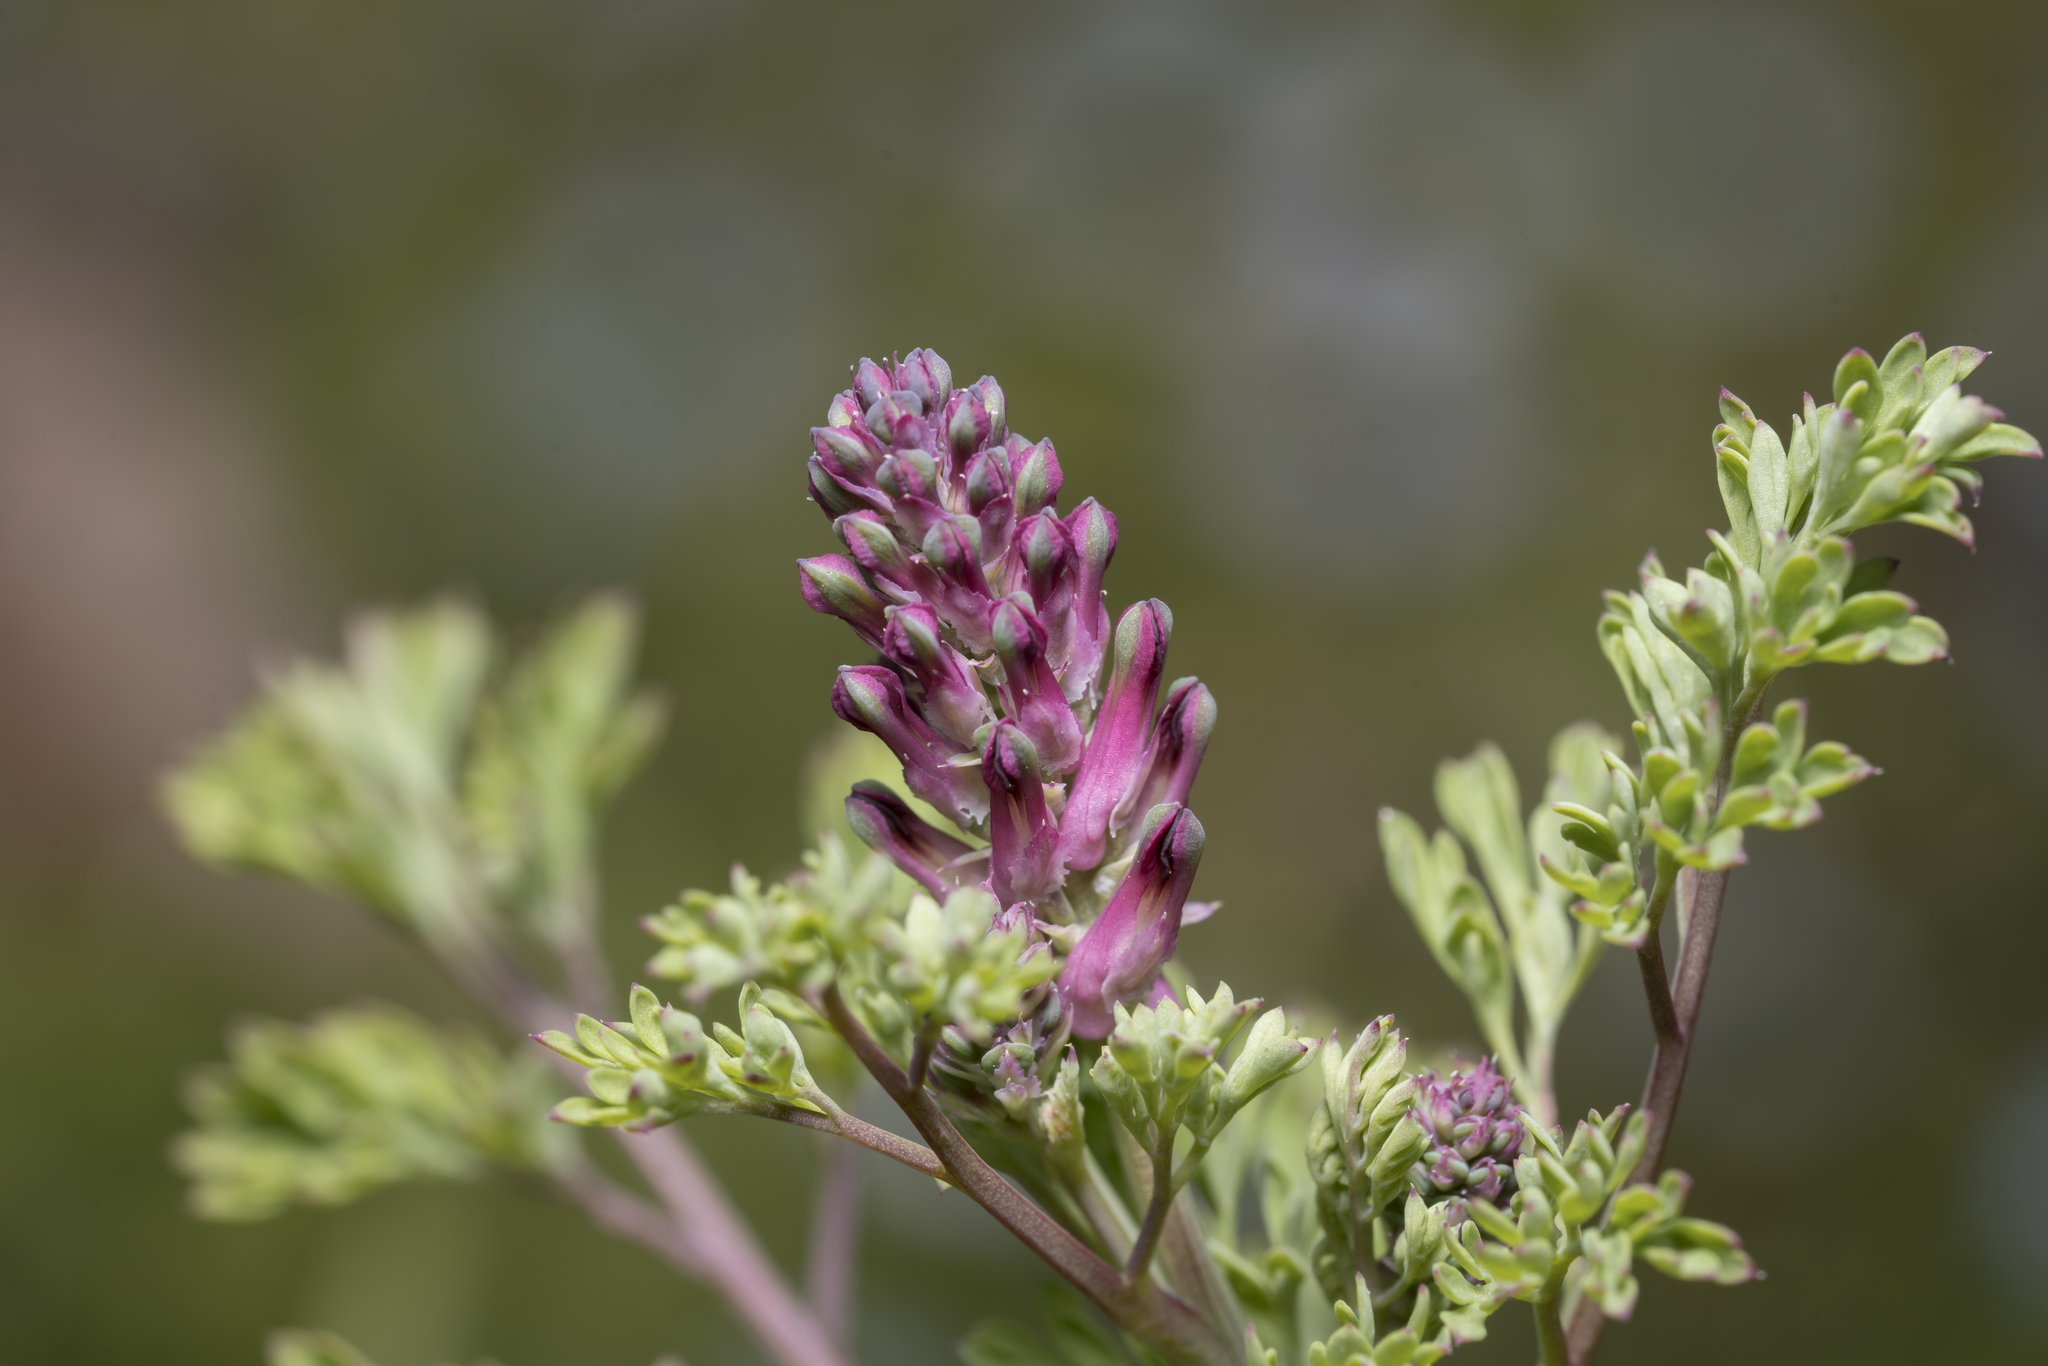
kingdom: Plantae
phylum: Tracheophyta
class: Magnoliopsida
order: Ranunculales
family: Papaveraceae
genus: Fumaria
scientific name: Fumaria officinalis
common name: Common fumitory
